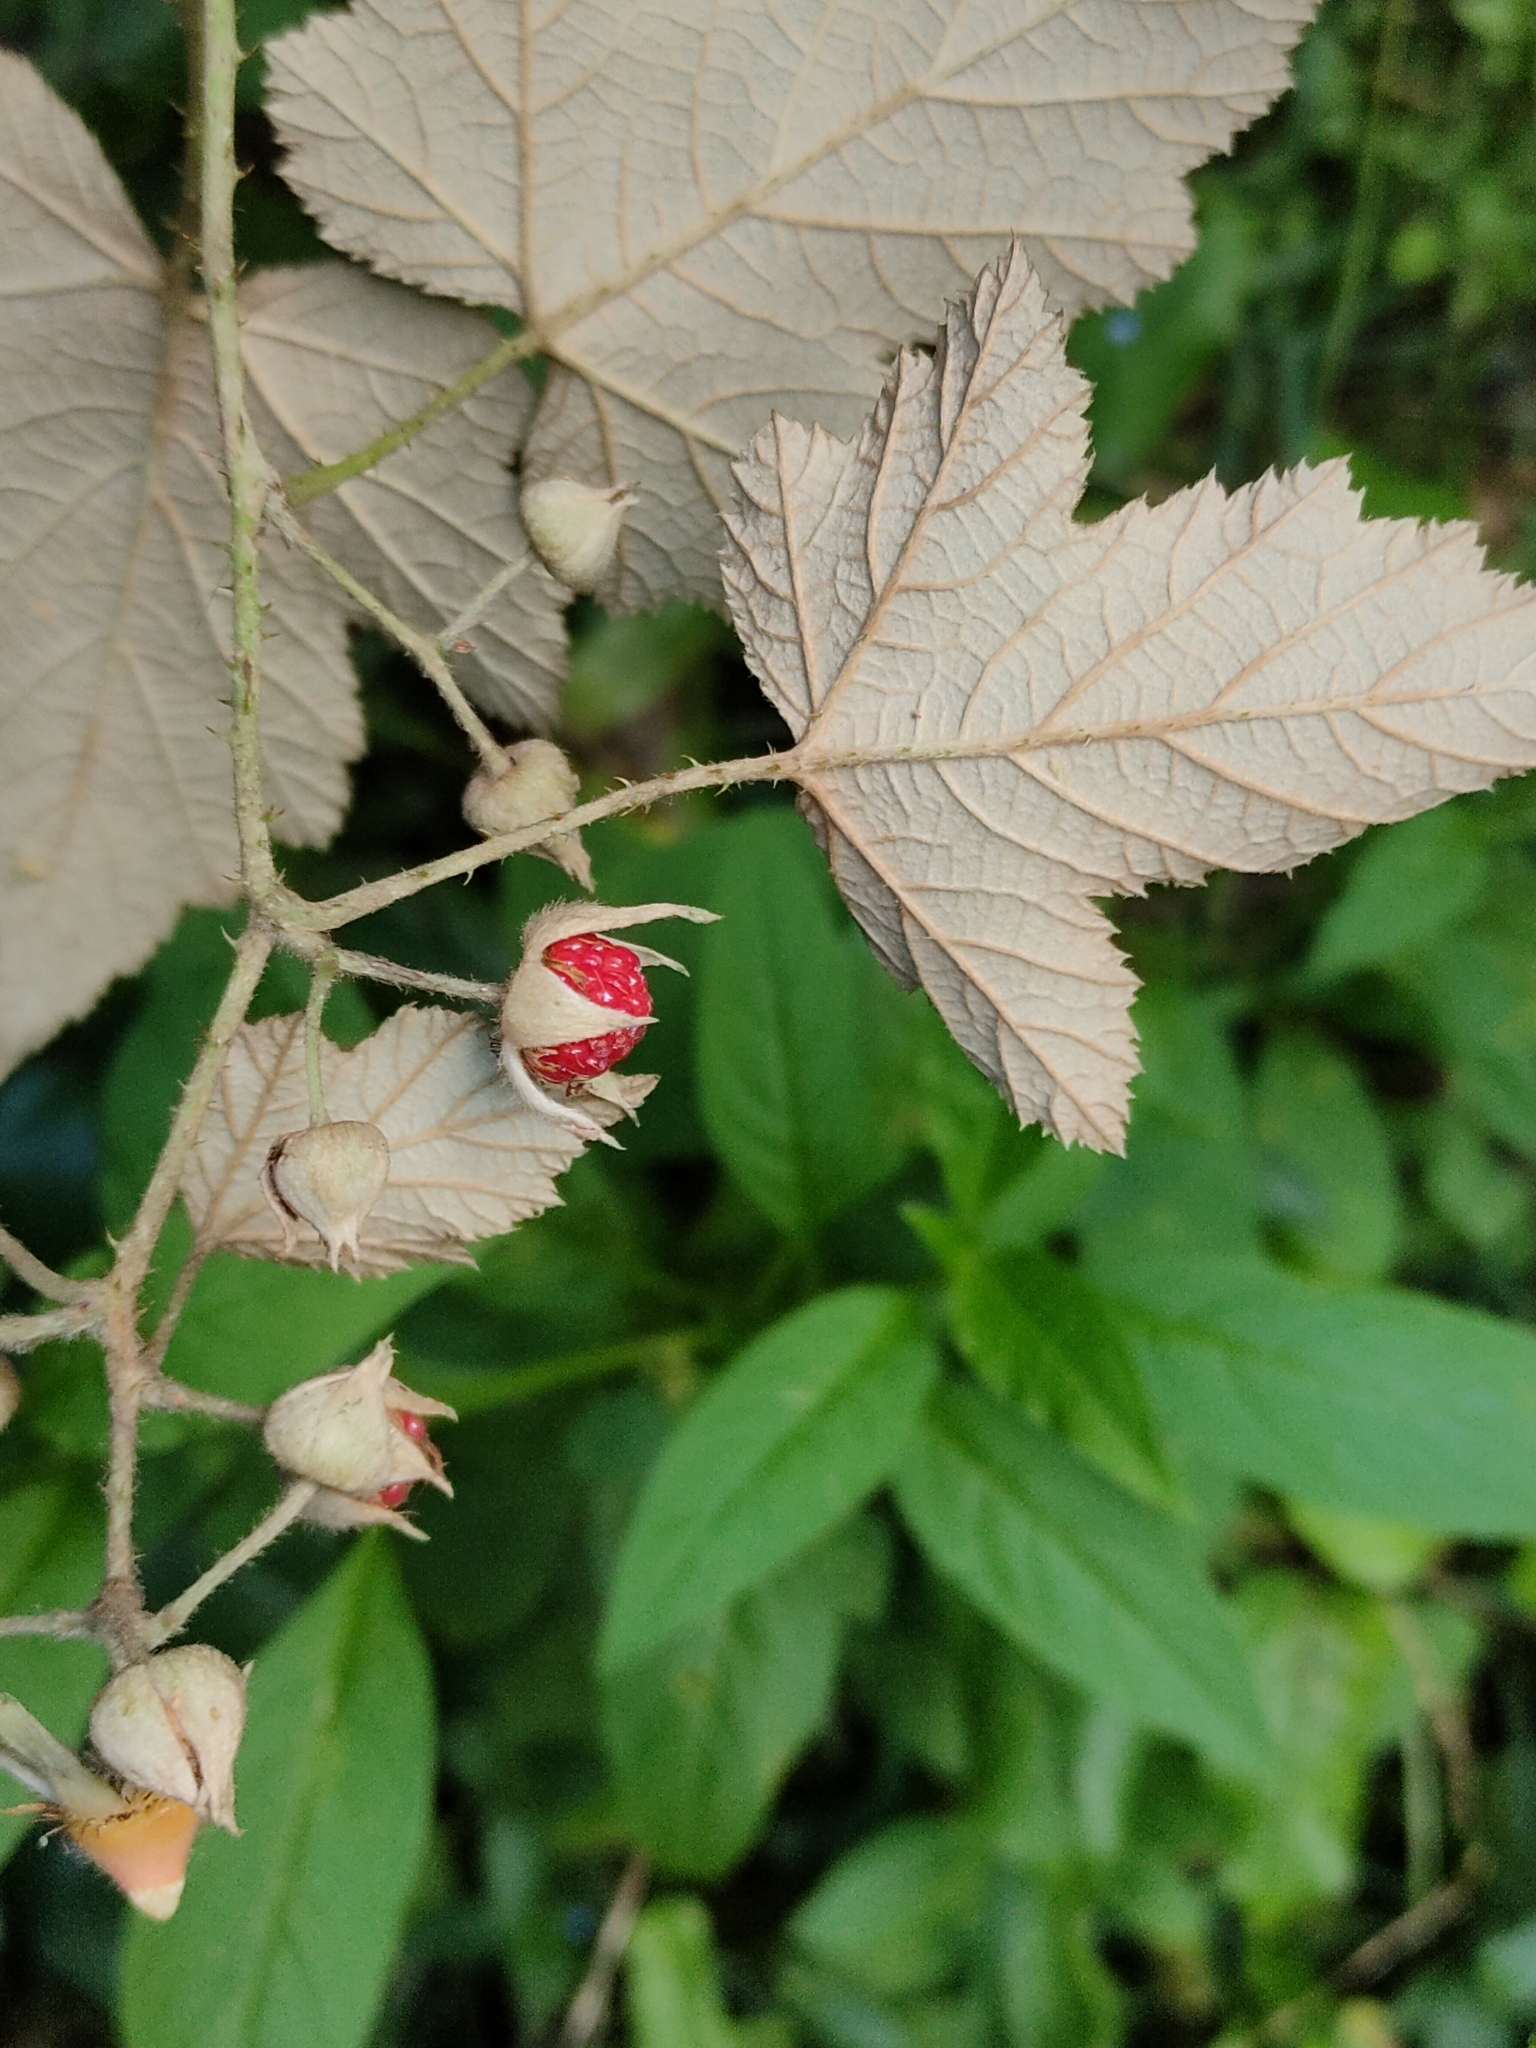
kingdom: Plantae
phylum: Tracheophyta
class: Magnoliopsida
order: Rosales
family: Rosaceae
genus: Rubus
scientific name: Rubus moluccanus
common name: Wild raspberry
